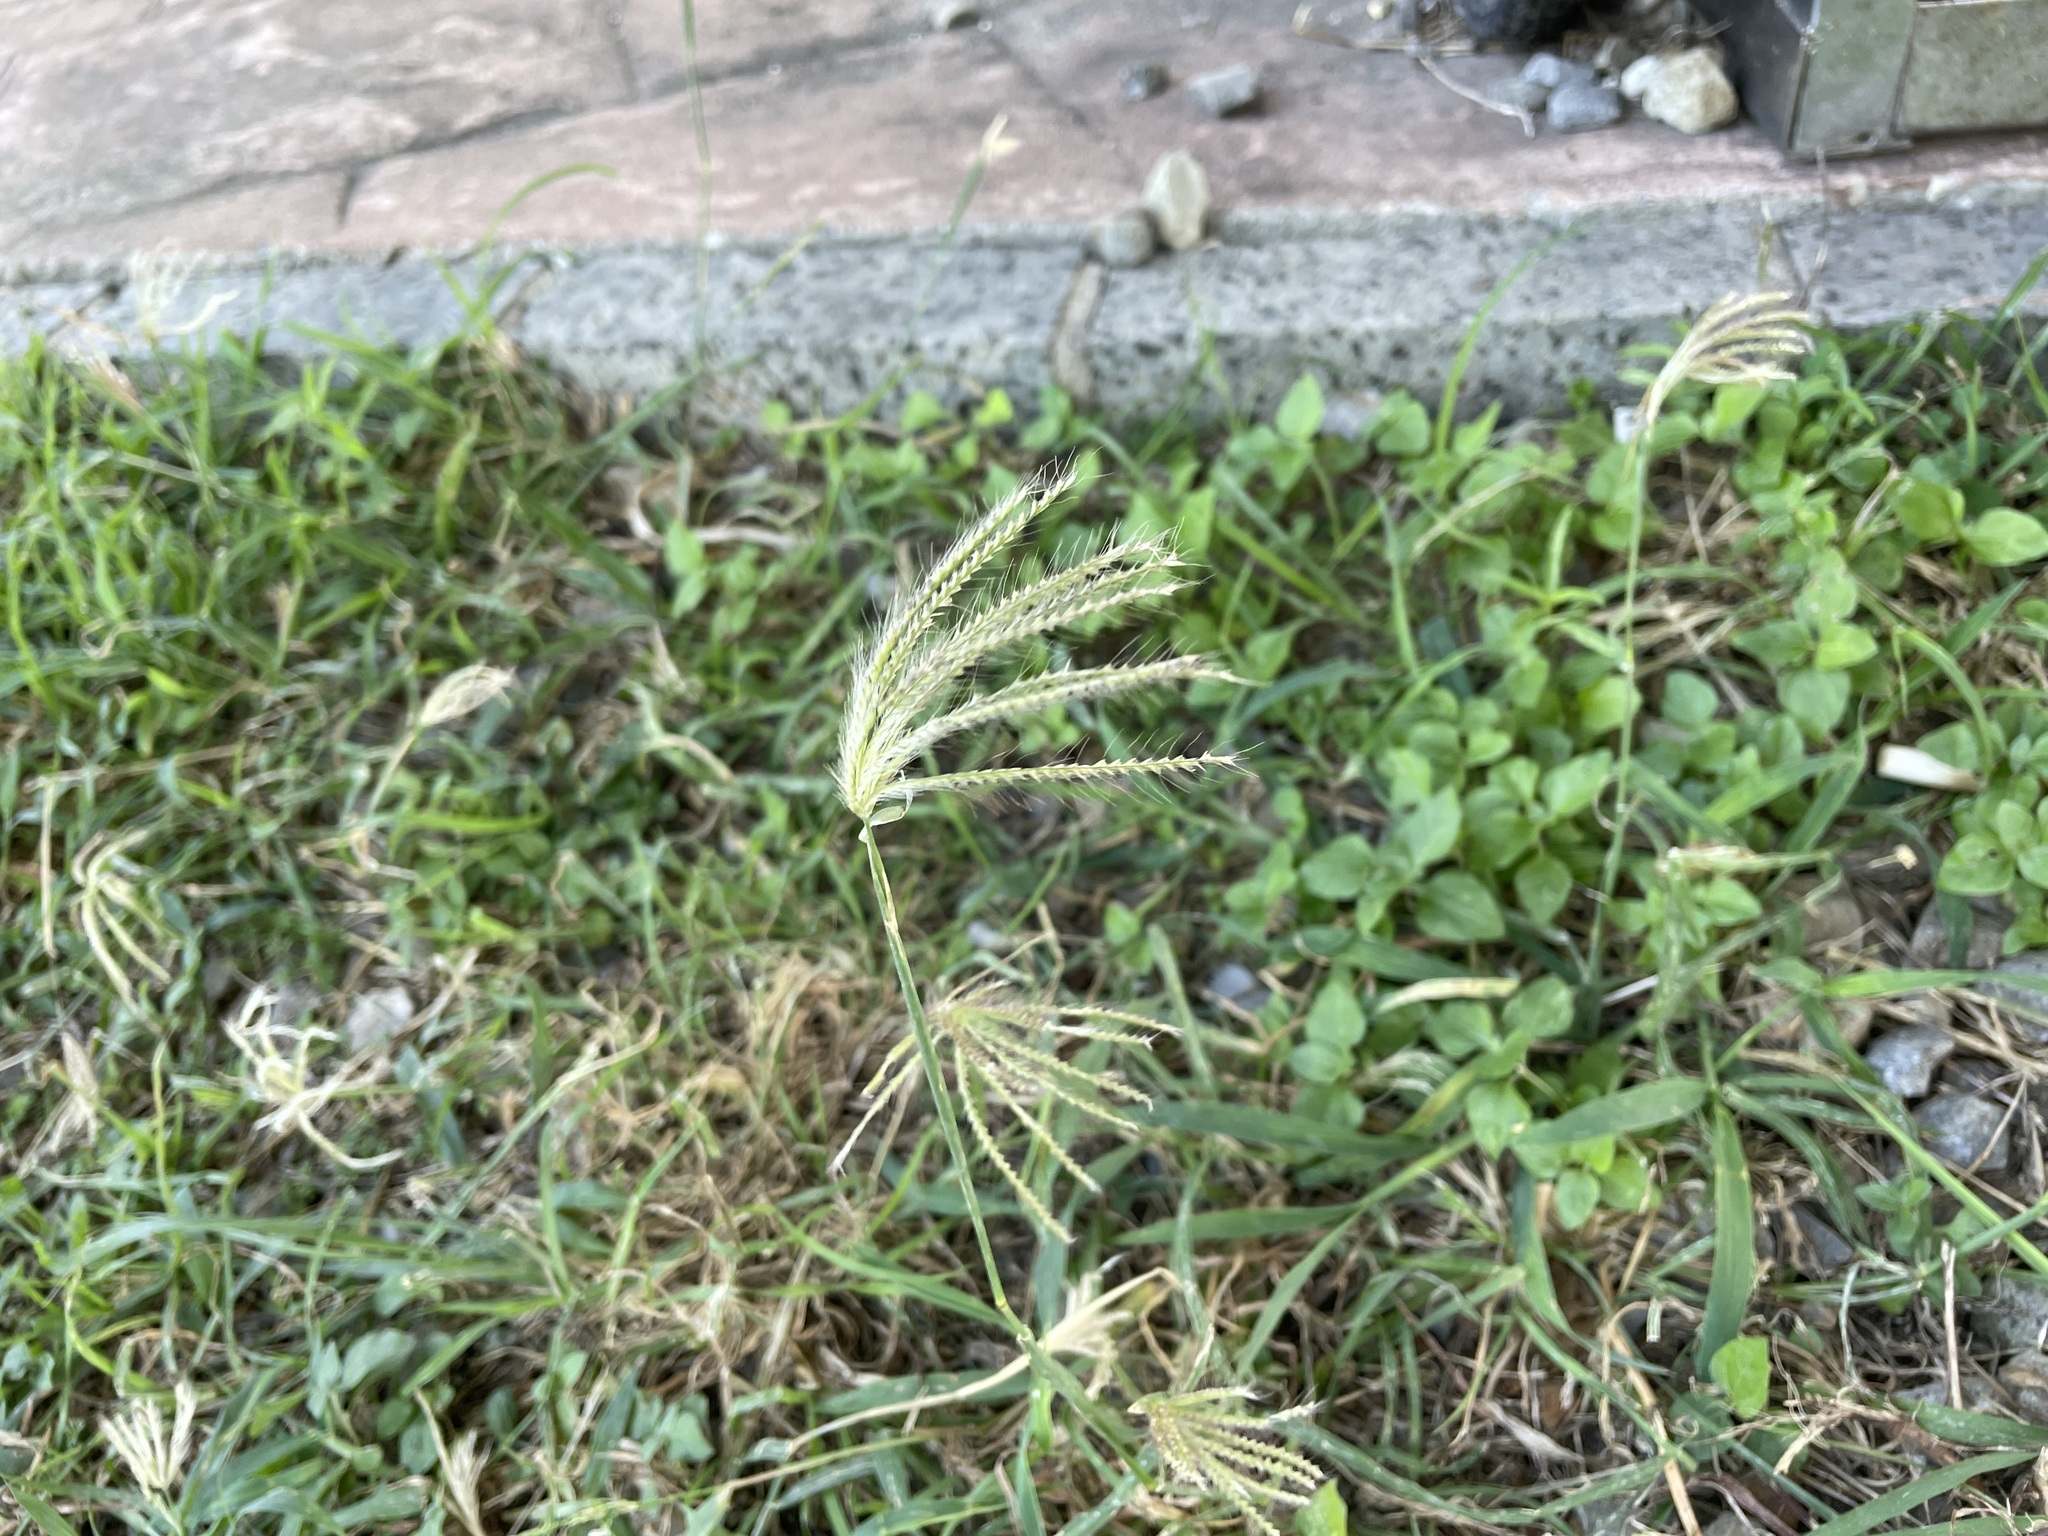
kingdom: Plantae
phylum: Tracheophyta
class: Liliopsida
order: Poales
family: Poaceae
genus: Chloris
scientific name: Chloris barbata
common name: Swollen fingergrass
